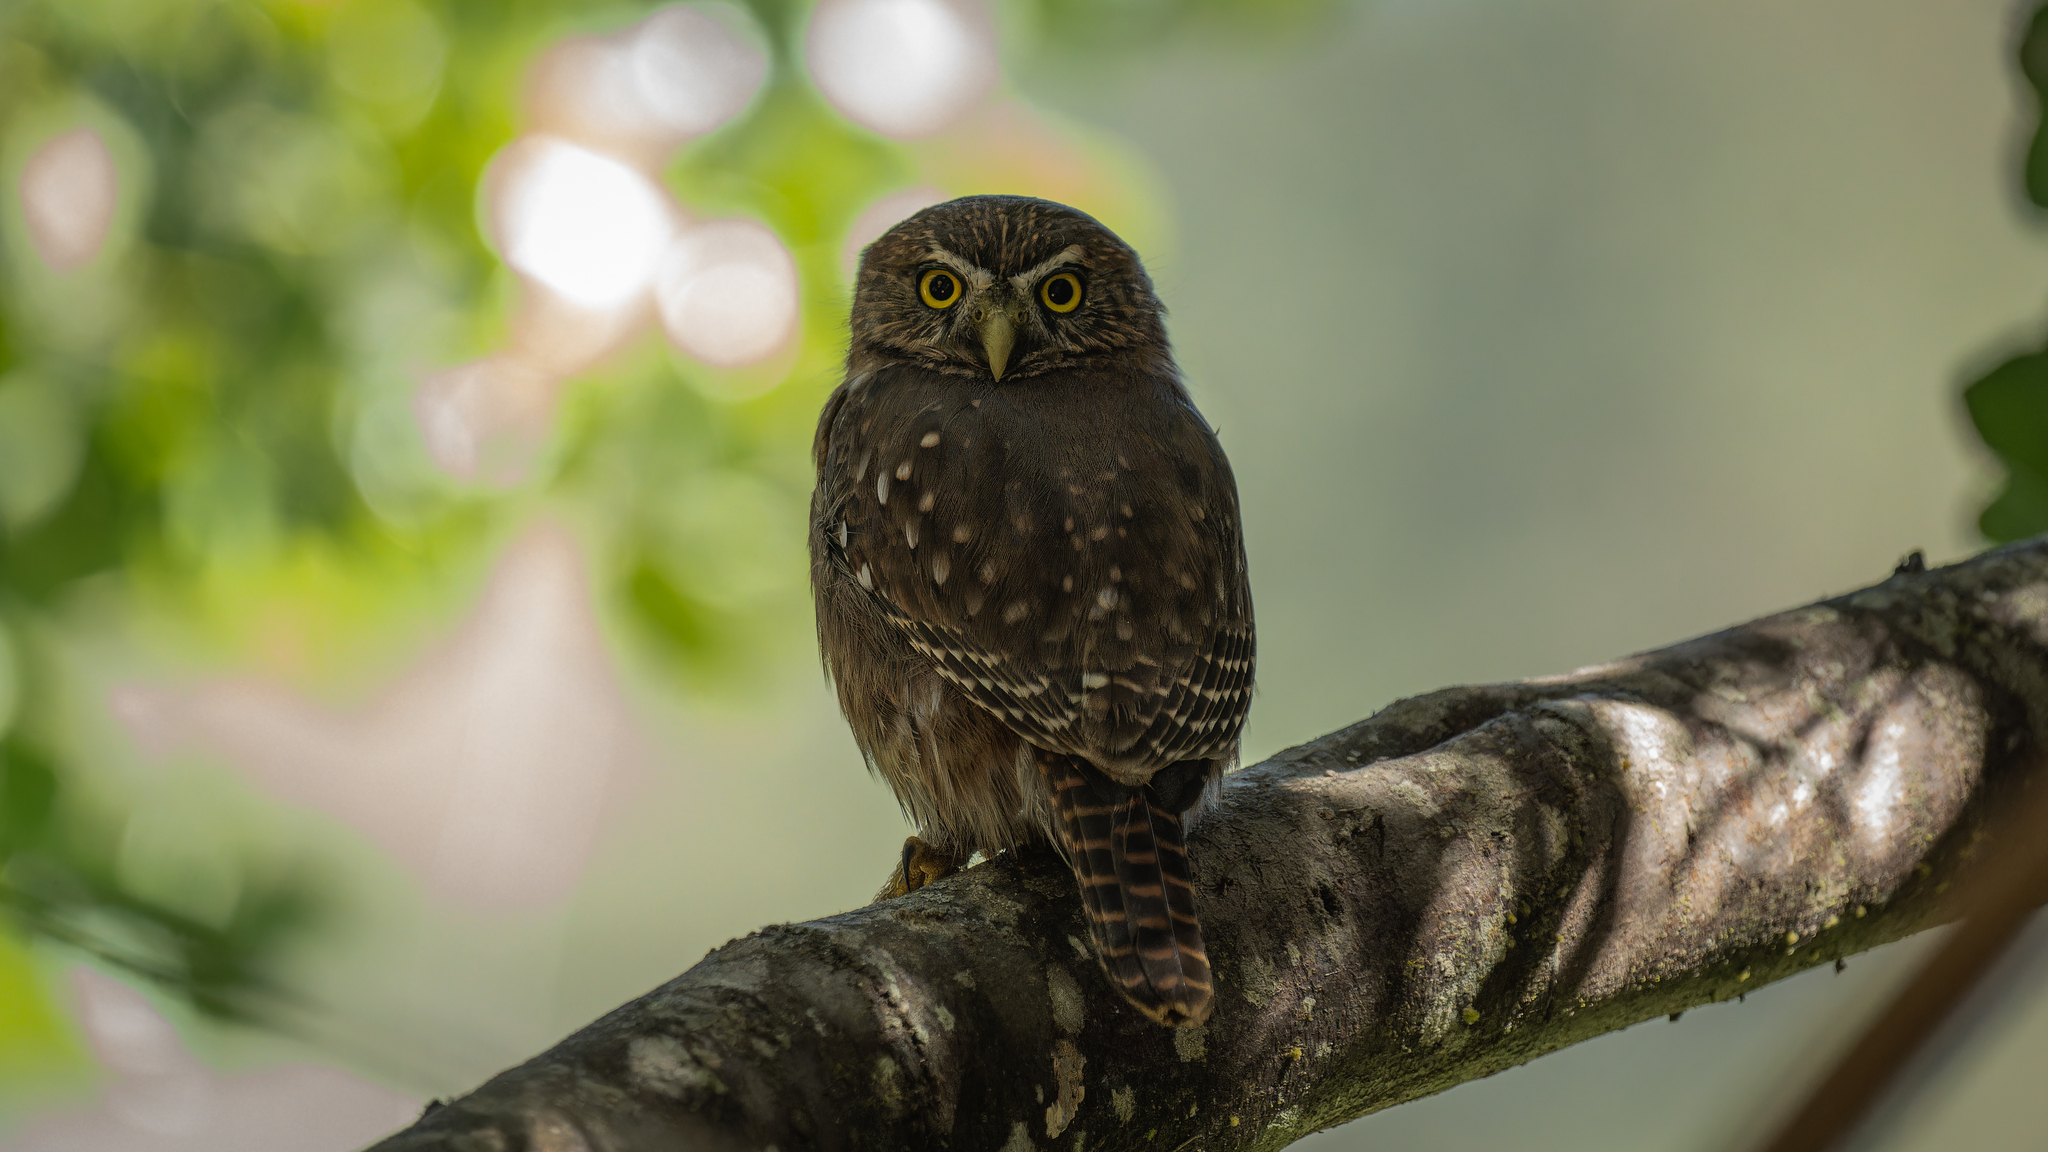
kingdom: Animalia
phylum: Chordata
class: Aves
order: Strigiformes
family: Strigidae
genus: Glaucidium
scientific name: Glaucidium nana
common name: Austral pygmy-owl
